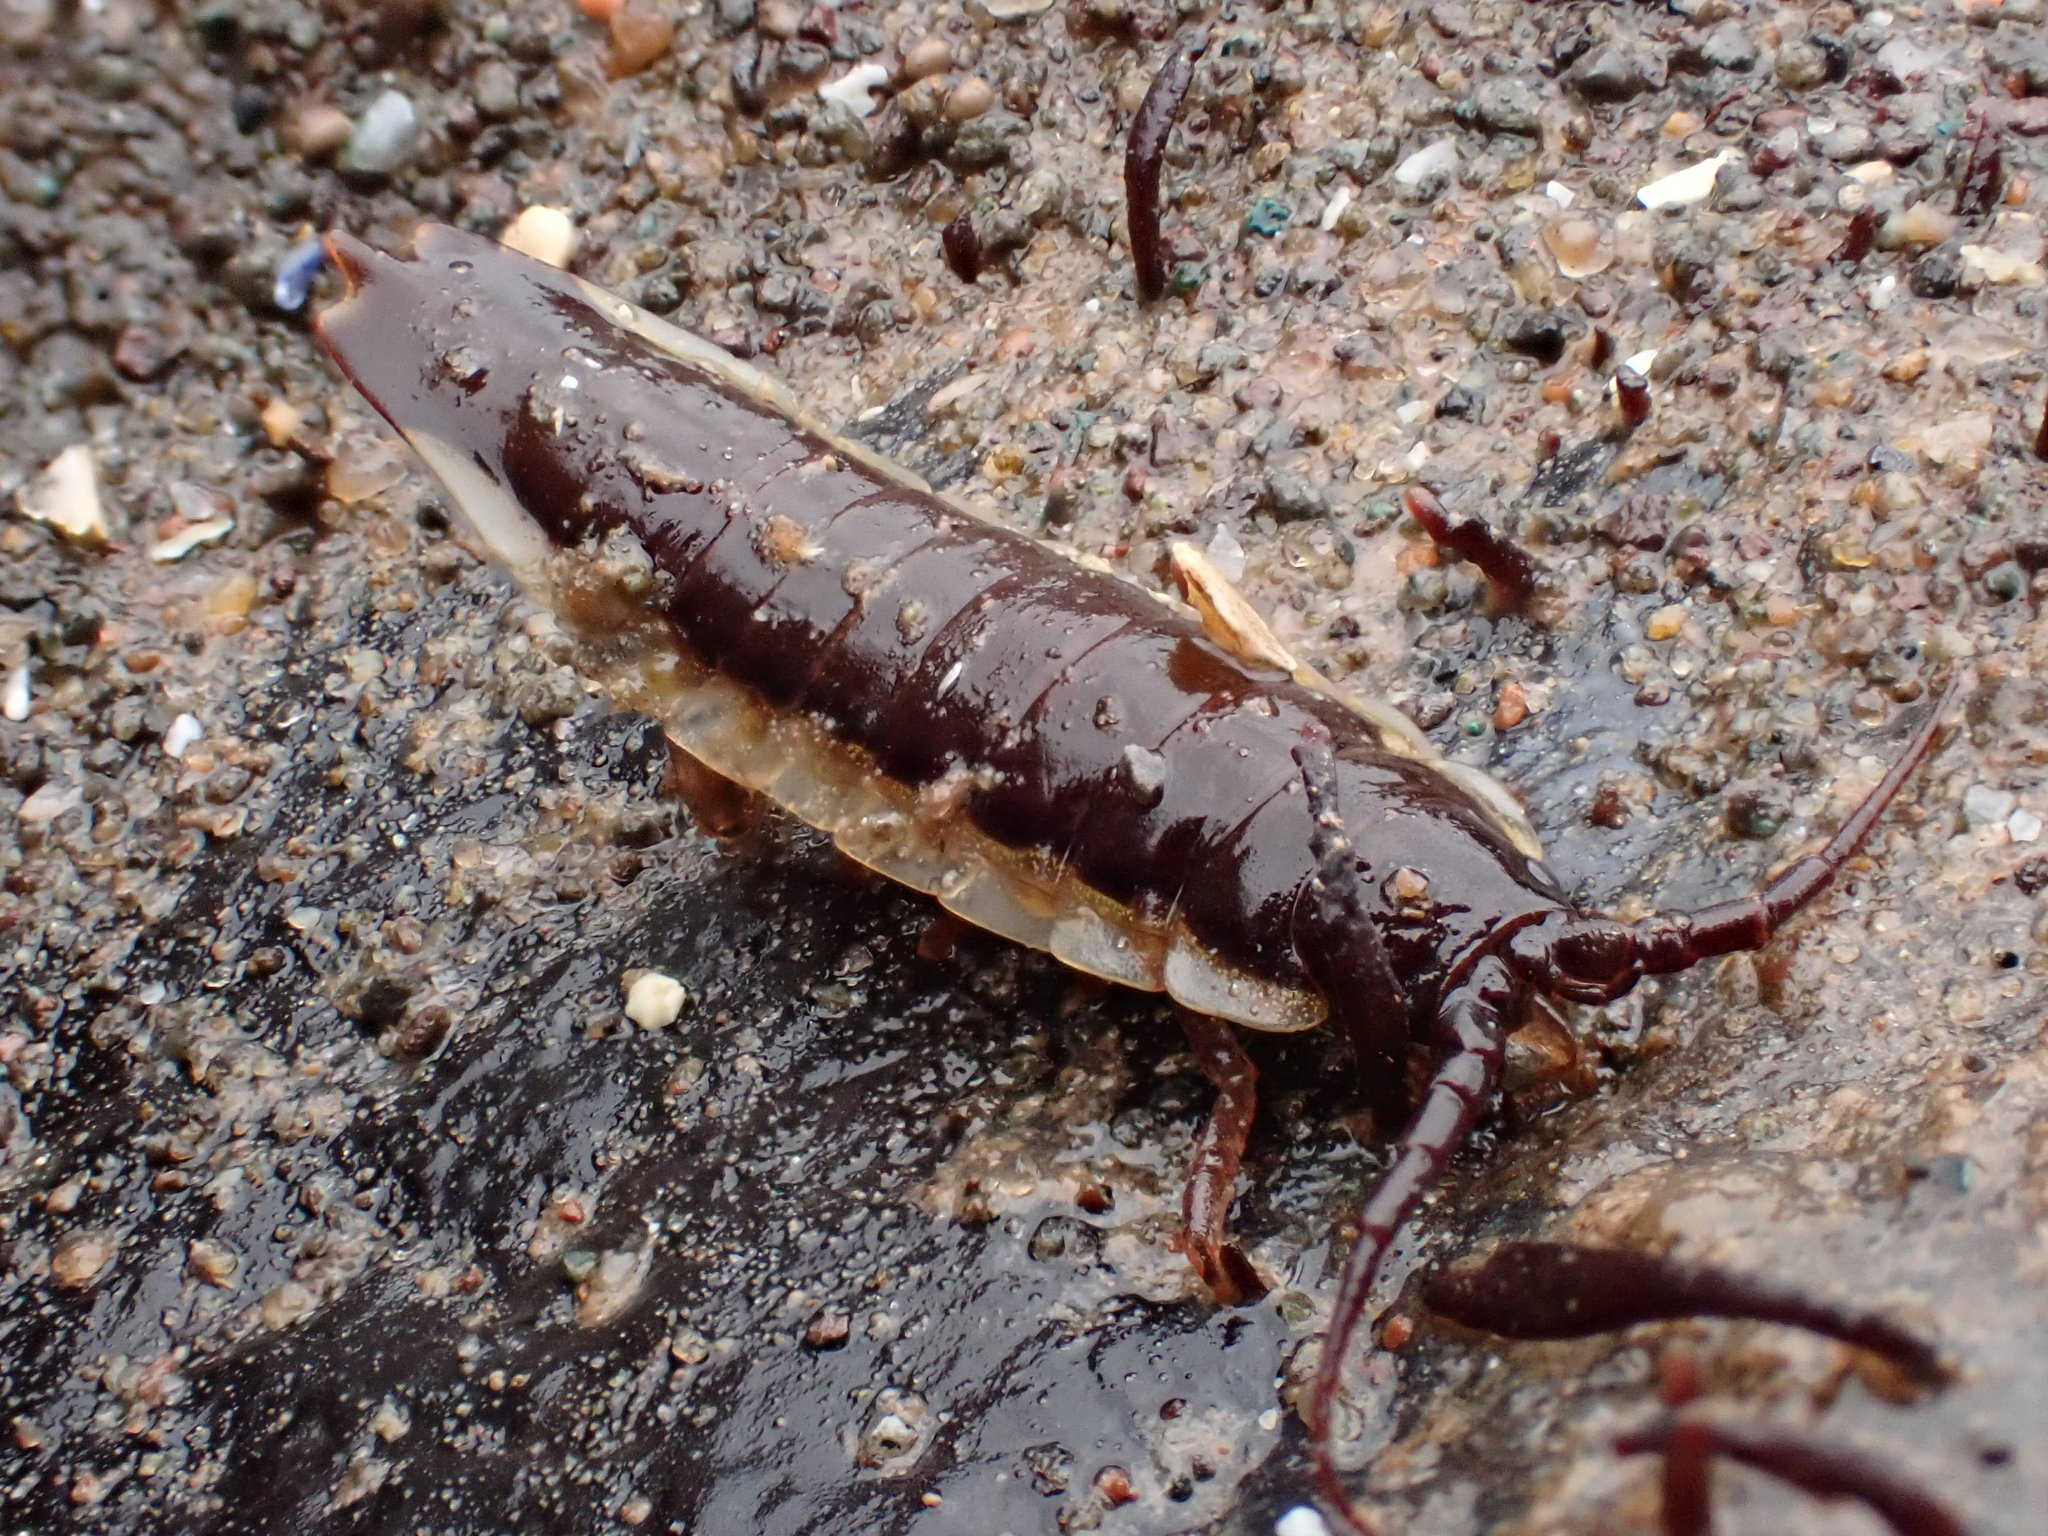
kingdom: Animalia
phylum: Arthropoda
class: Malacostraca
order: Isopoda
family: Idoteidae
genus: Idotea
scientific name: Idotea balthica
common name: Baltic isopod
